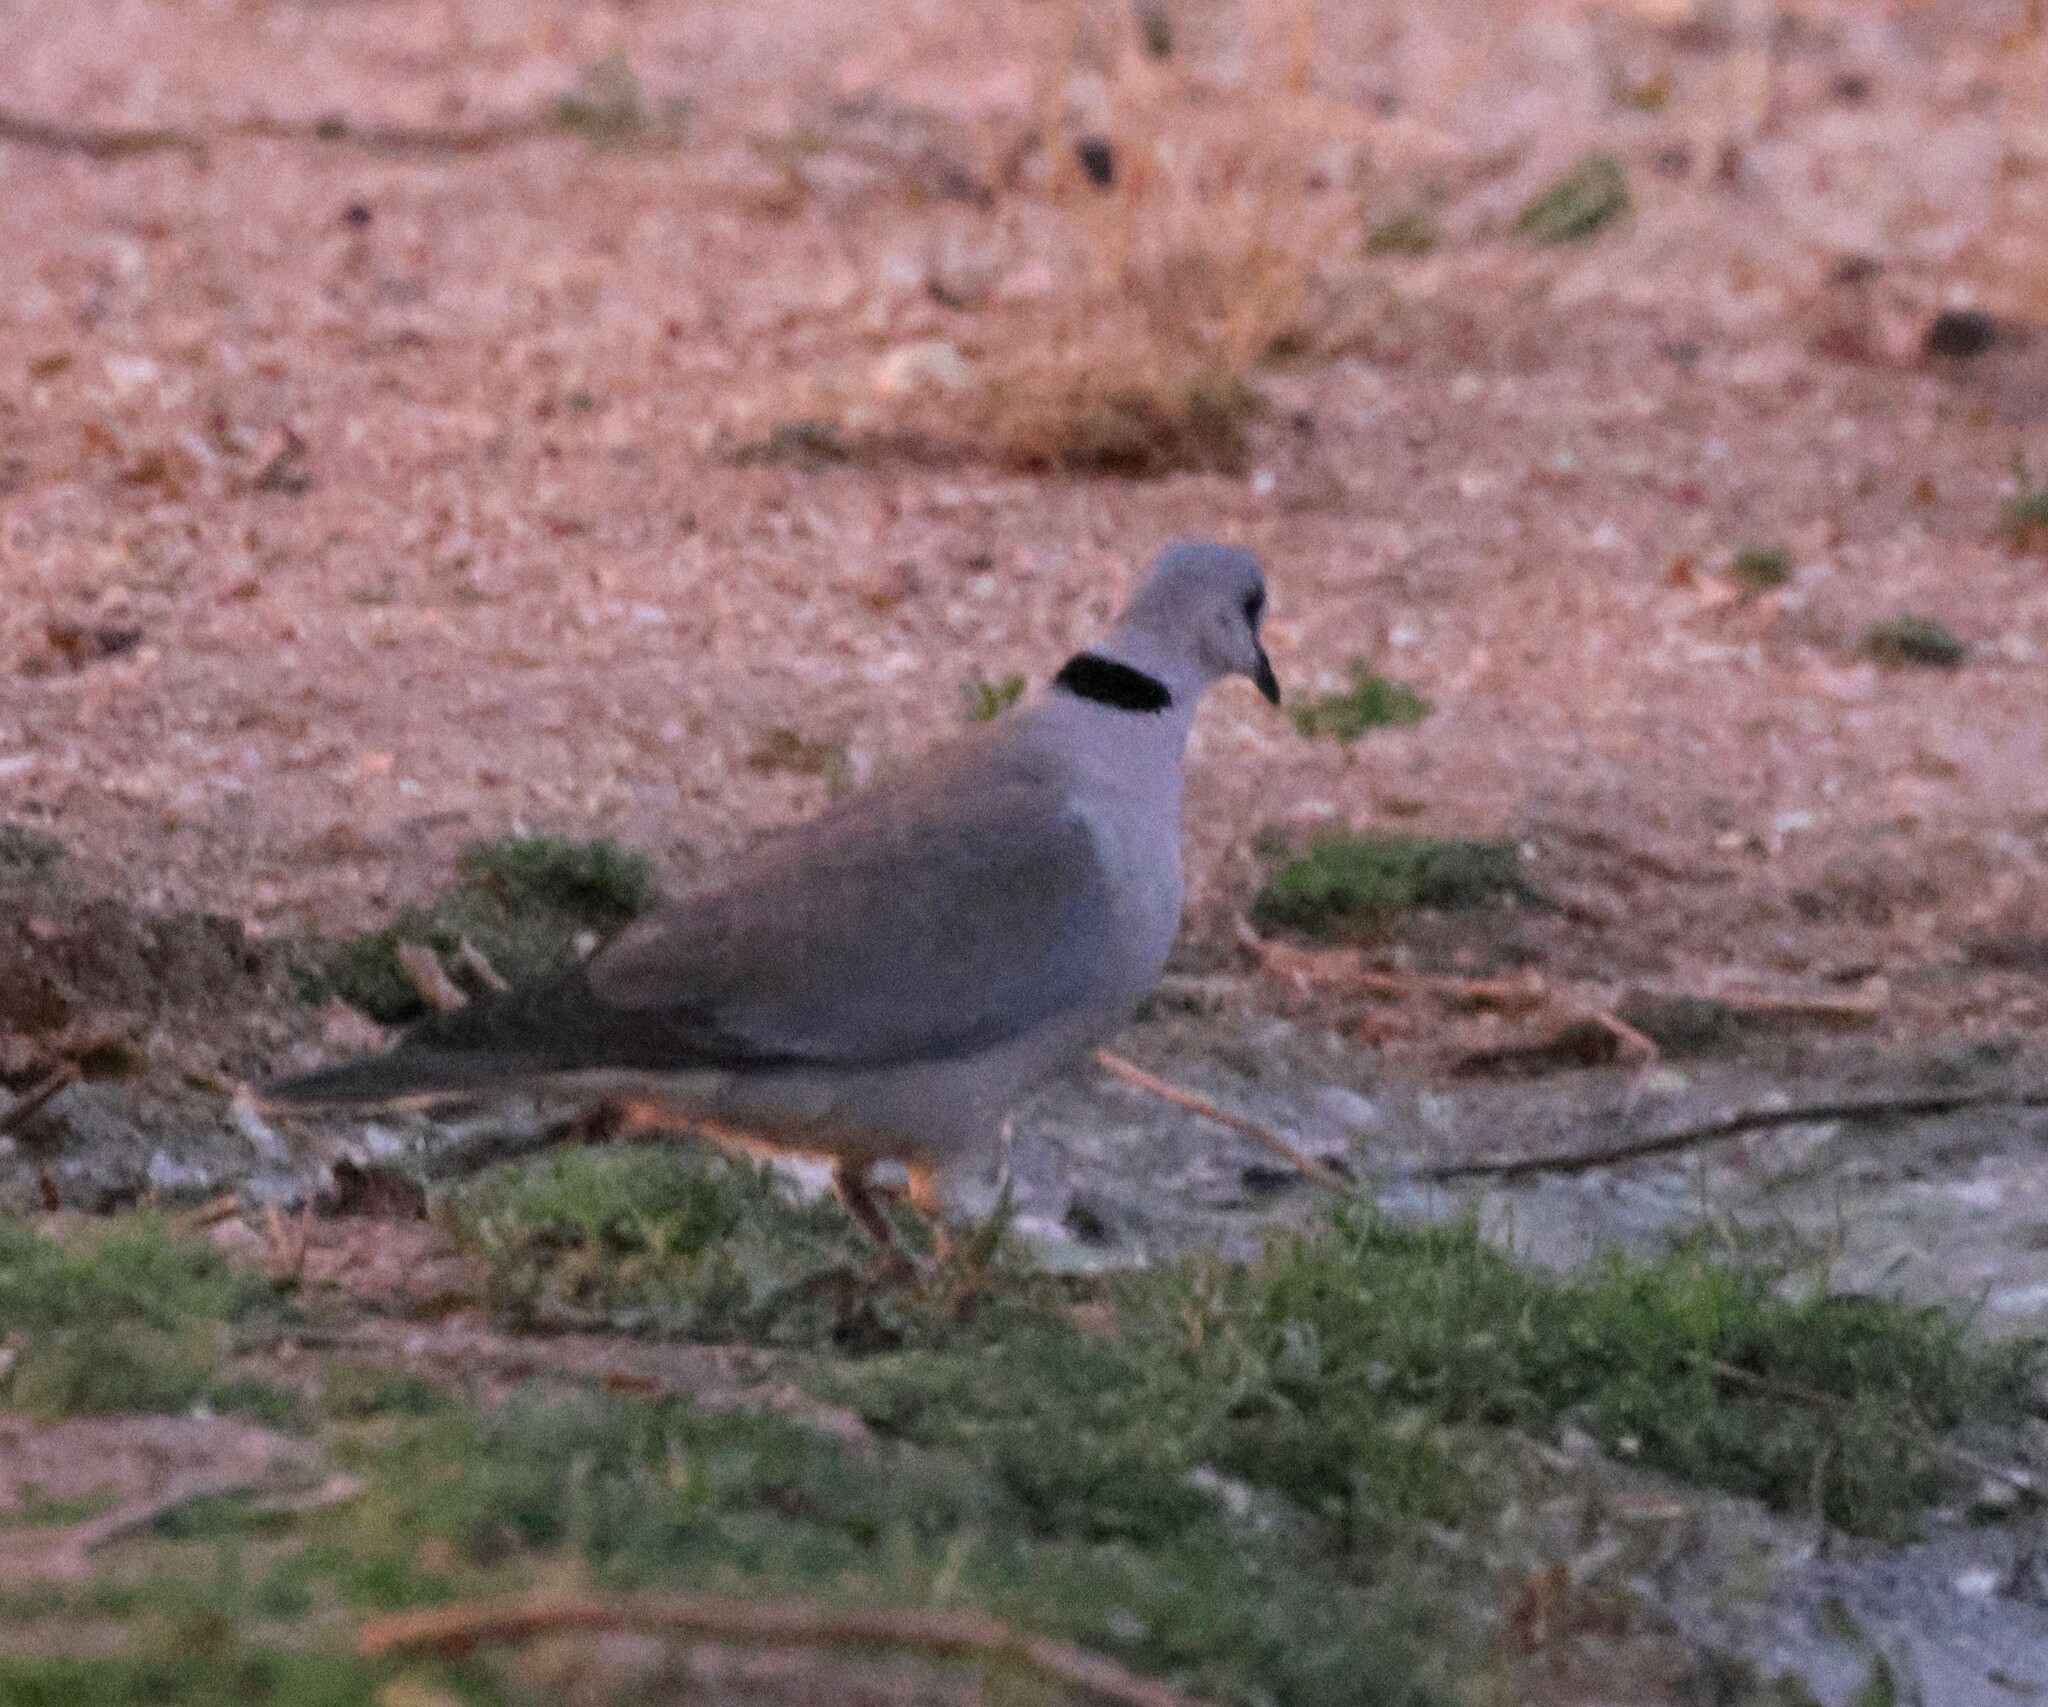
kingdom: Animalia
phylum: Chordata
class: Aves
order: Columbiformes
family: Columbidae
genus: Streptopelia
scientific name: Streptopelia capicola
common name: Ring-necked dove
